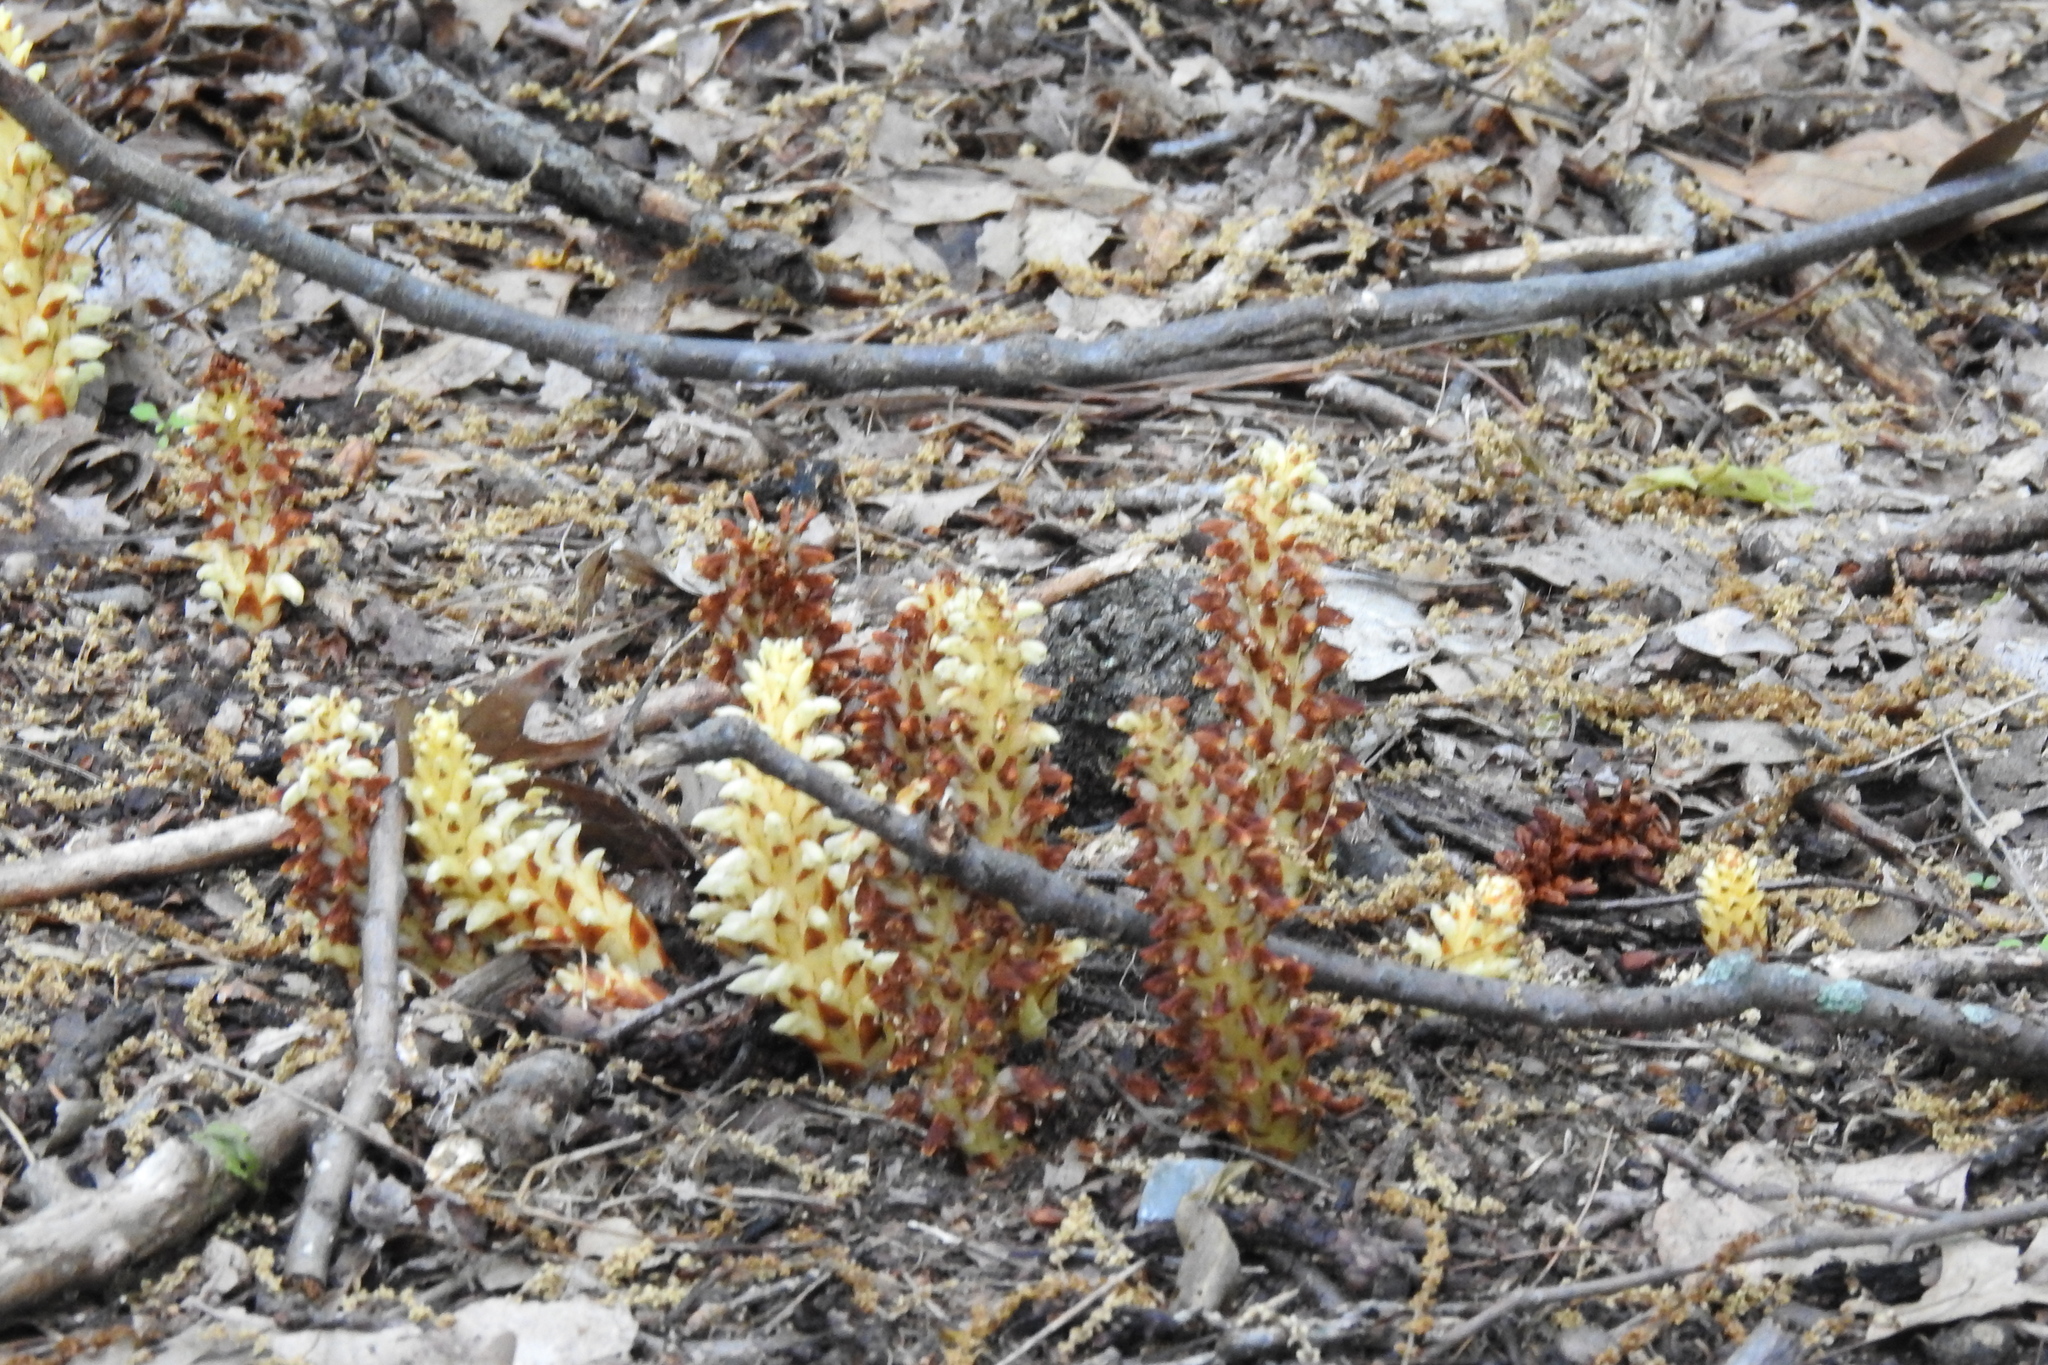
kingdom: Plantae
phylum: Tracheophyta
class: Magnoliopsida
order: Lamiales
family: Orobanchaceae
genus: Conopholis
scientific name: Conopholis americana
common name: American cancer-root
